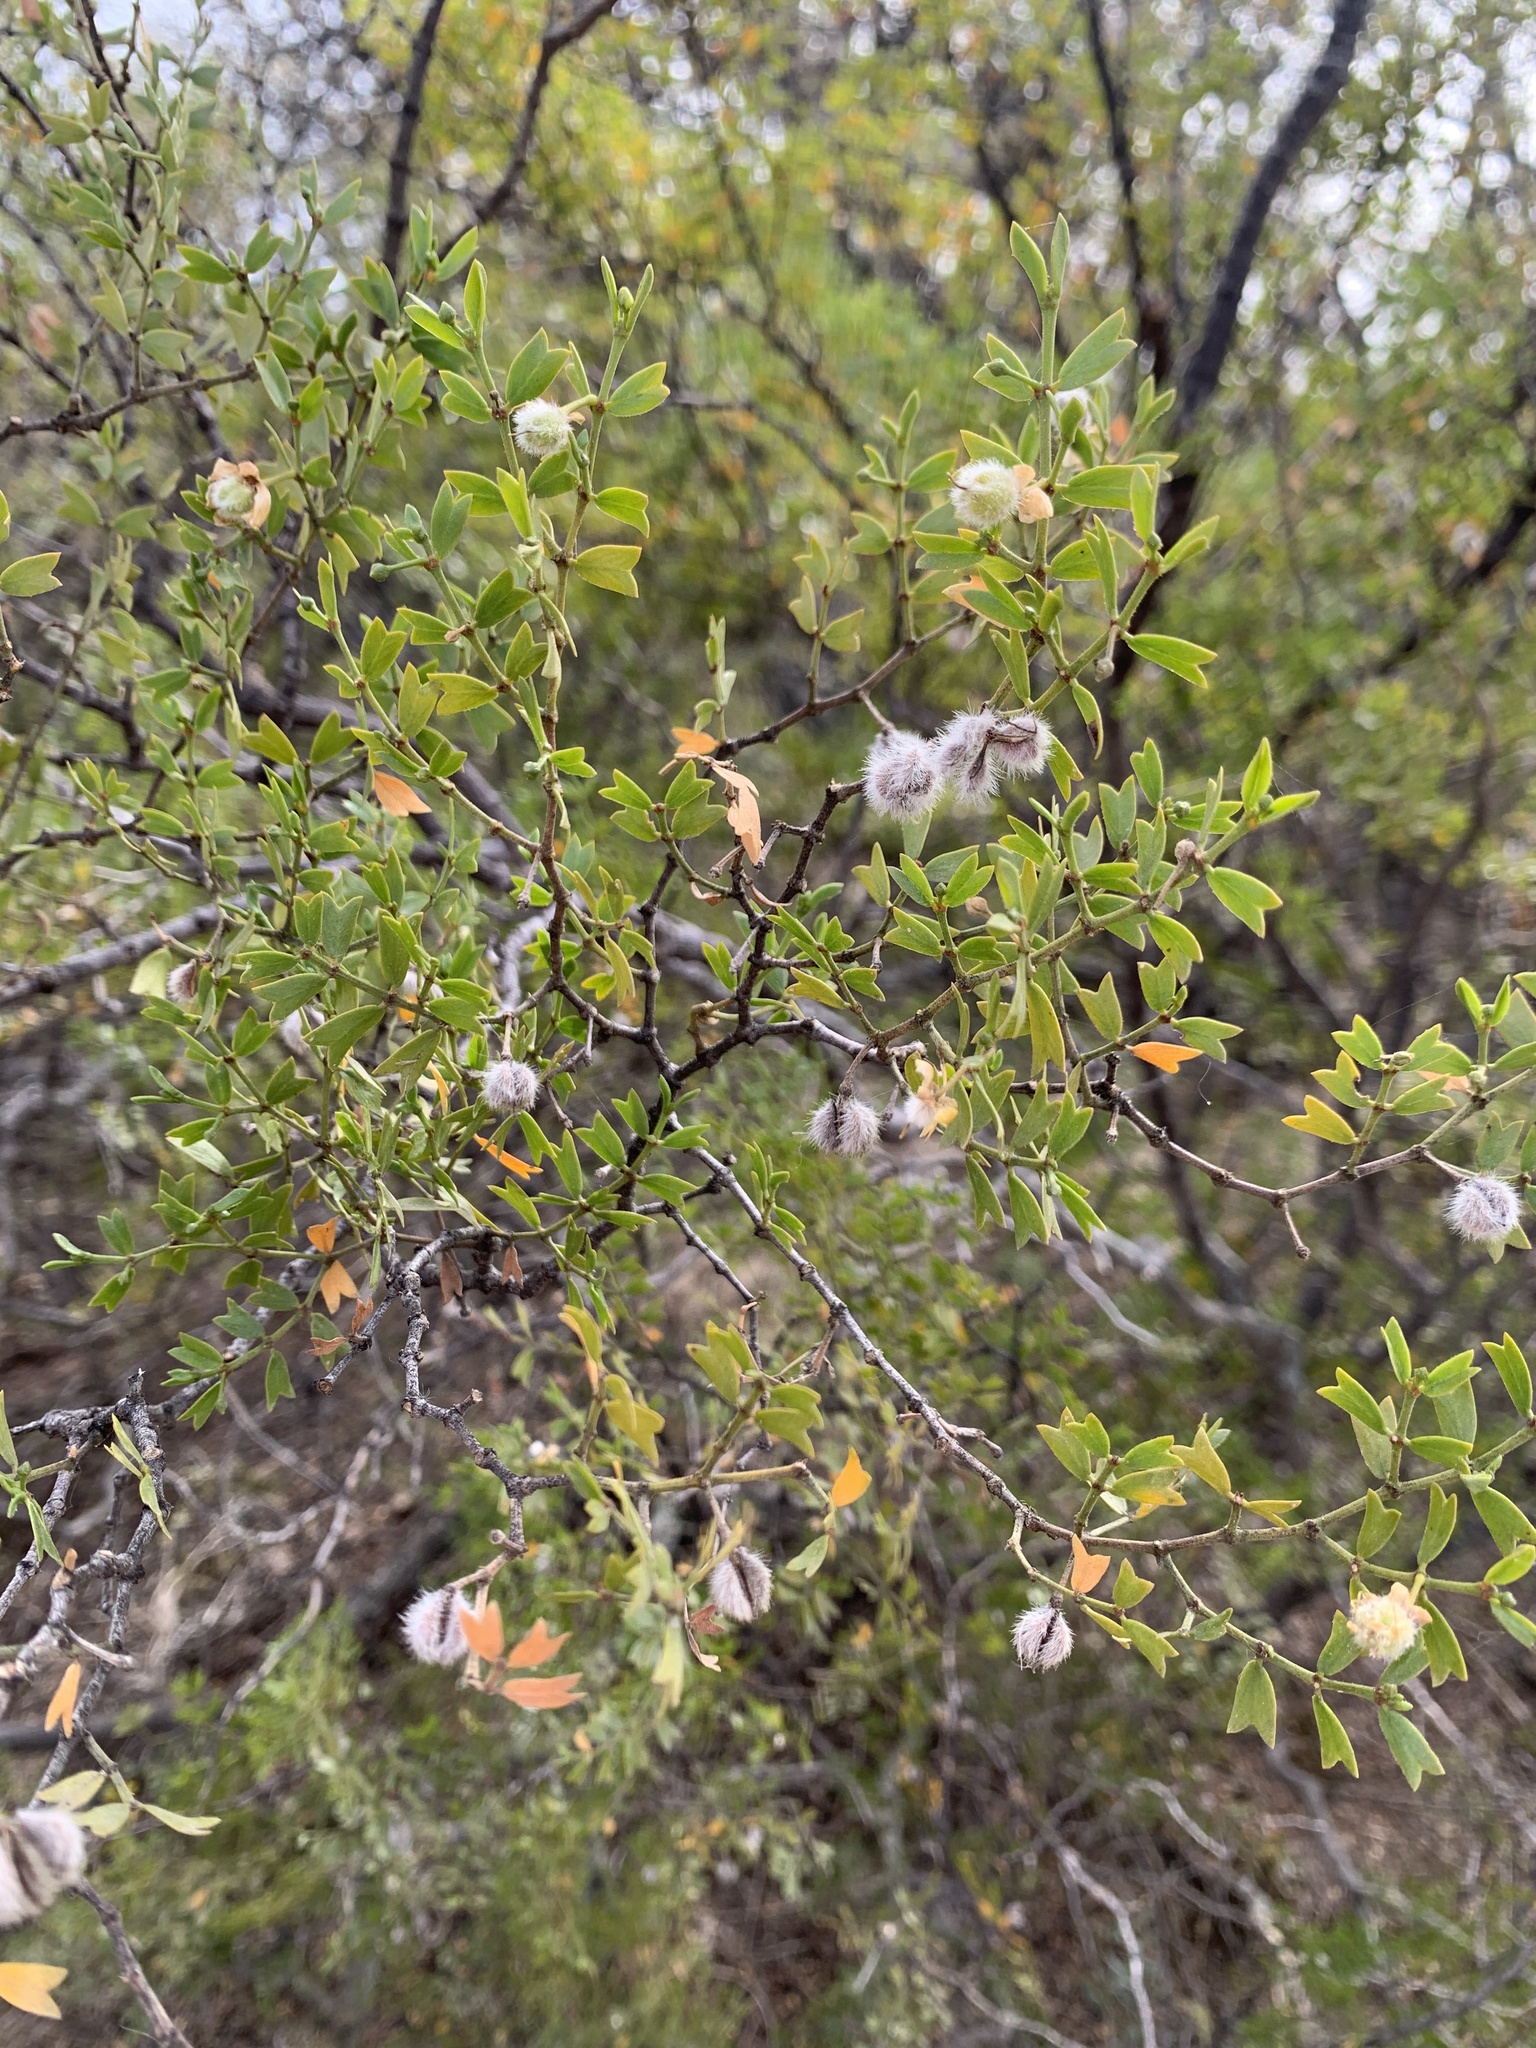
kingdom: Plantae
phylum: Tracheophyta
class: Magnoliopsida
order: Zygophyllales
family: Zygophyllaceae
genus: Larrea
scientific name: Larrea cuneifolia
